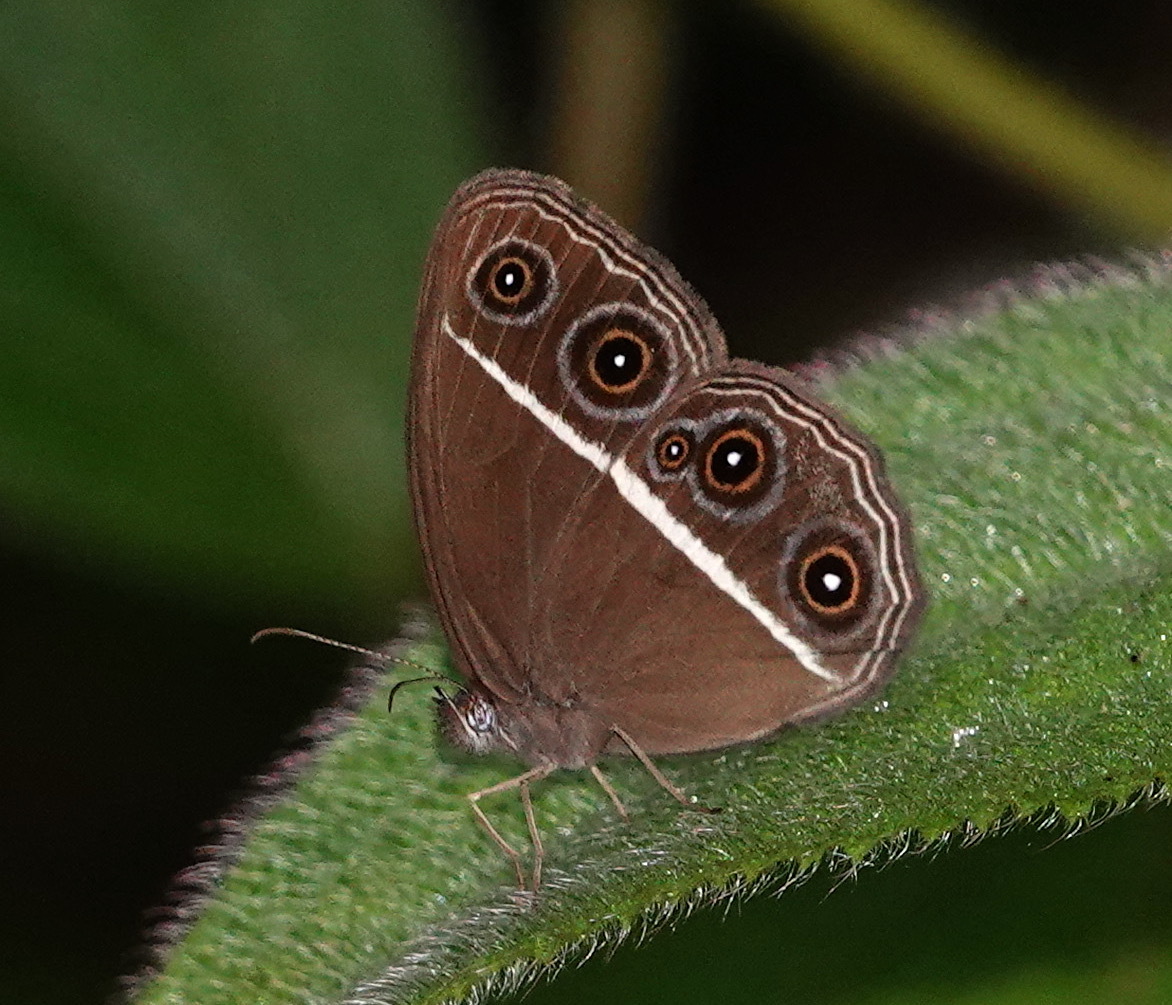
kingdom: Animalia
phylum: Arthropoda
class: Insecta
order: Lepidoptera
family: Nymphalidae
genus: Orsotriaena
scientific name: Orsotriaena medus
